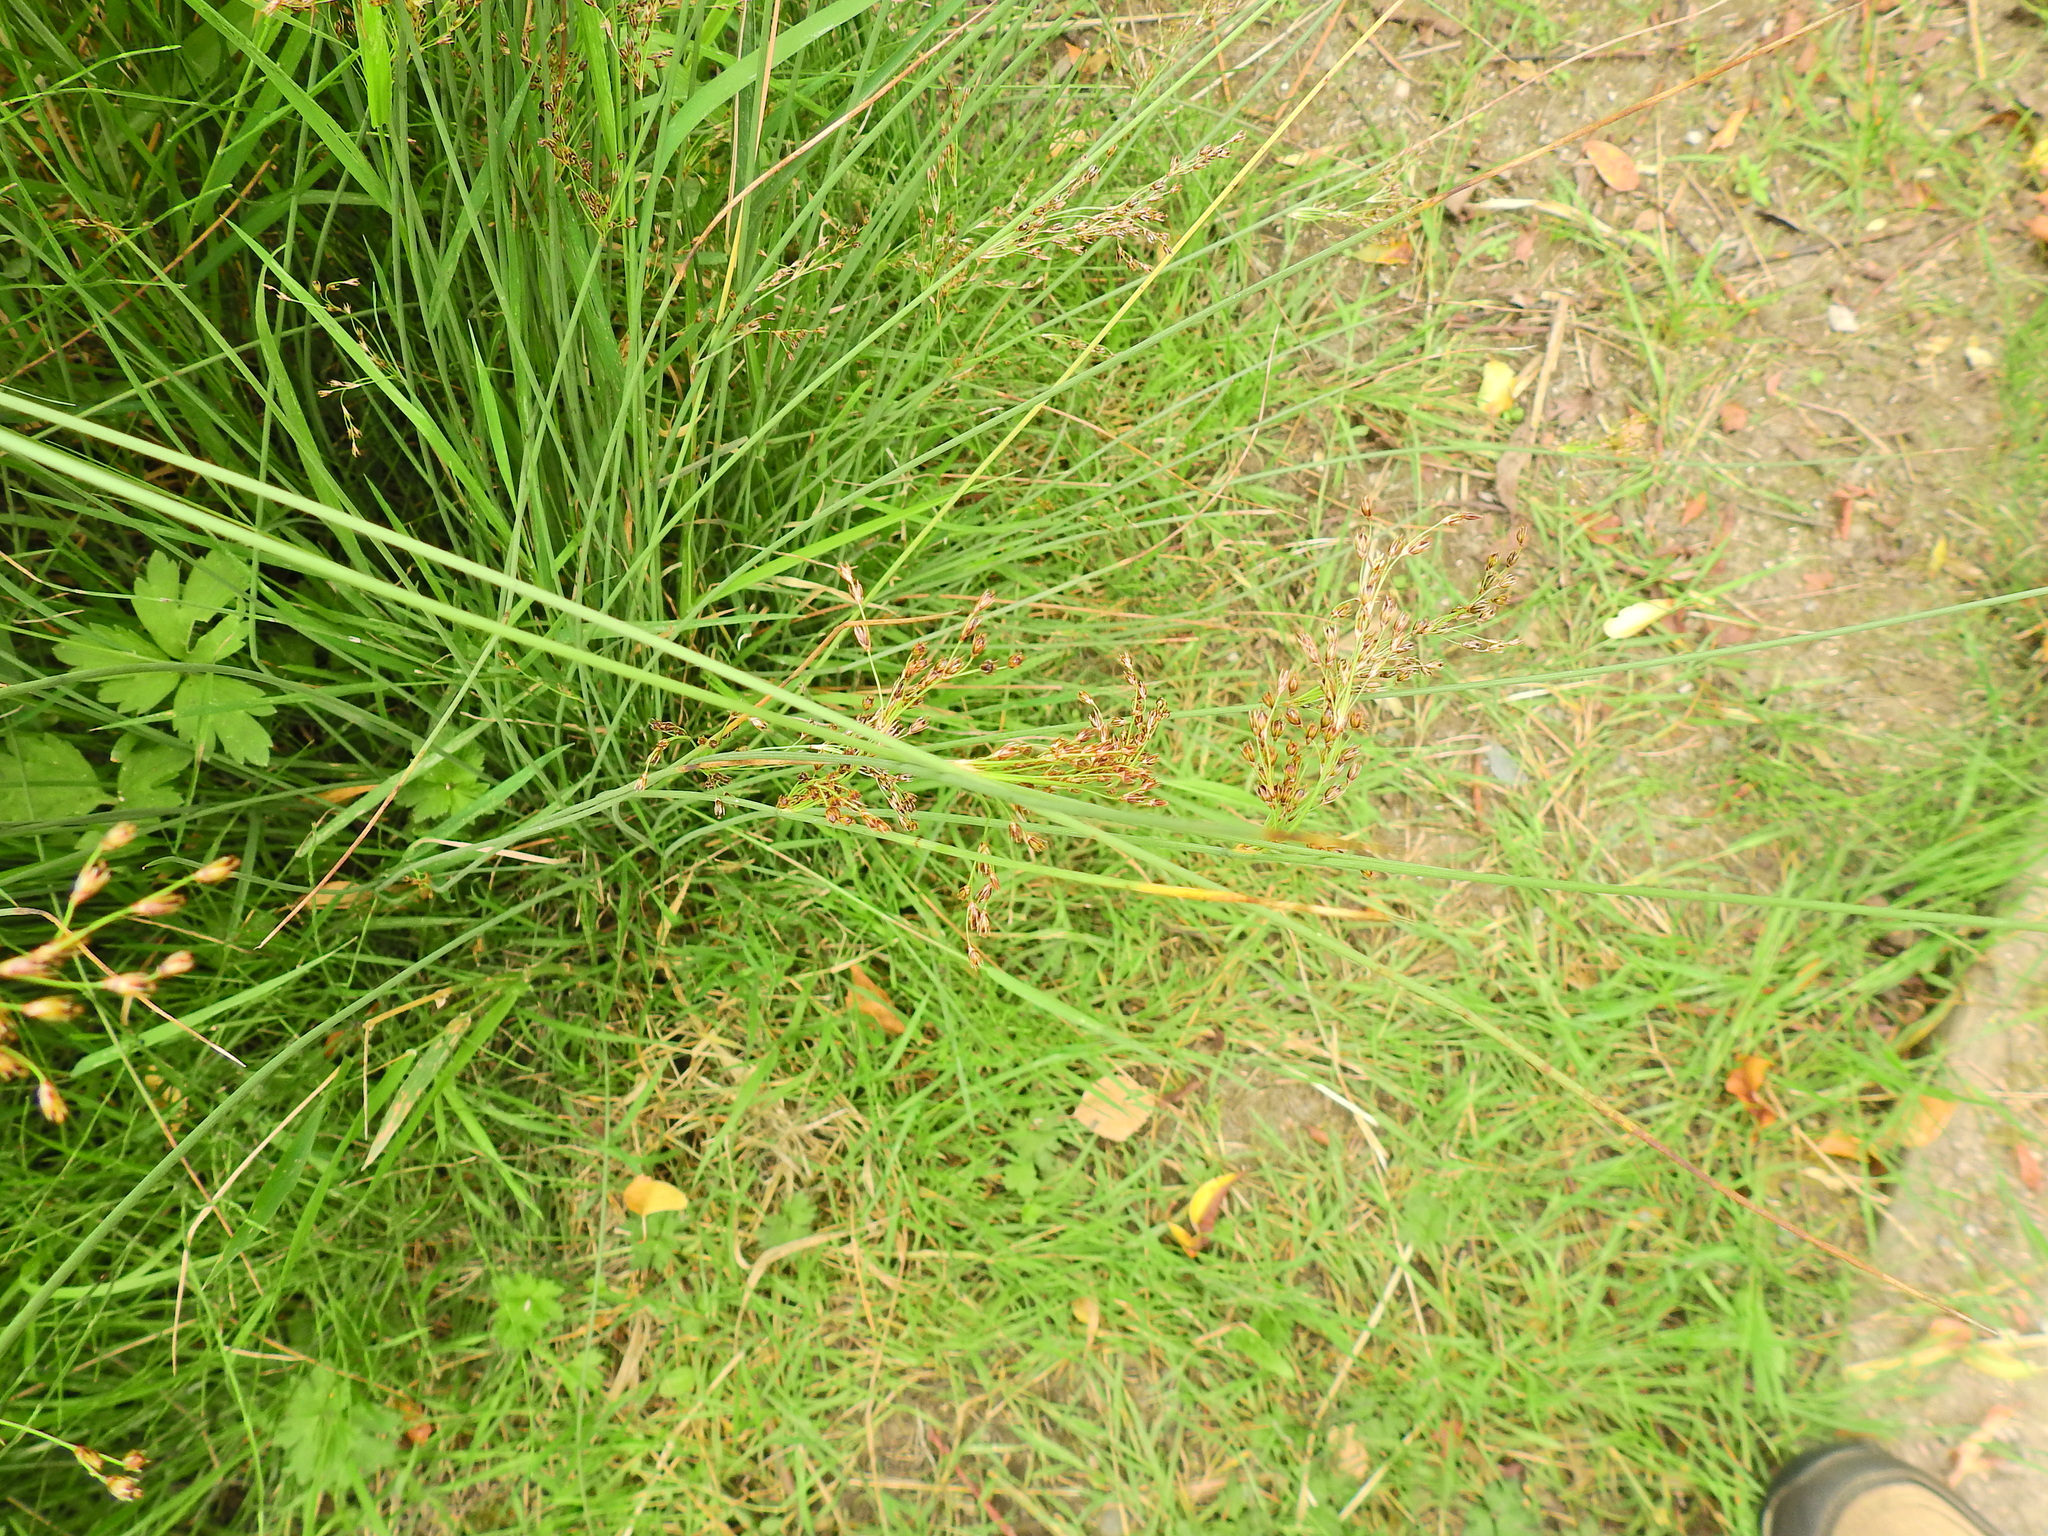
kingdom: Plantae
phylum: Tracheophyta
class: Liliopsida
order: Poales
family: Juncaceae
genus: Juncus
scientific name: Juncus inflexus
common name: Hard rush
